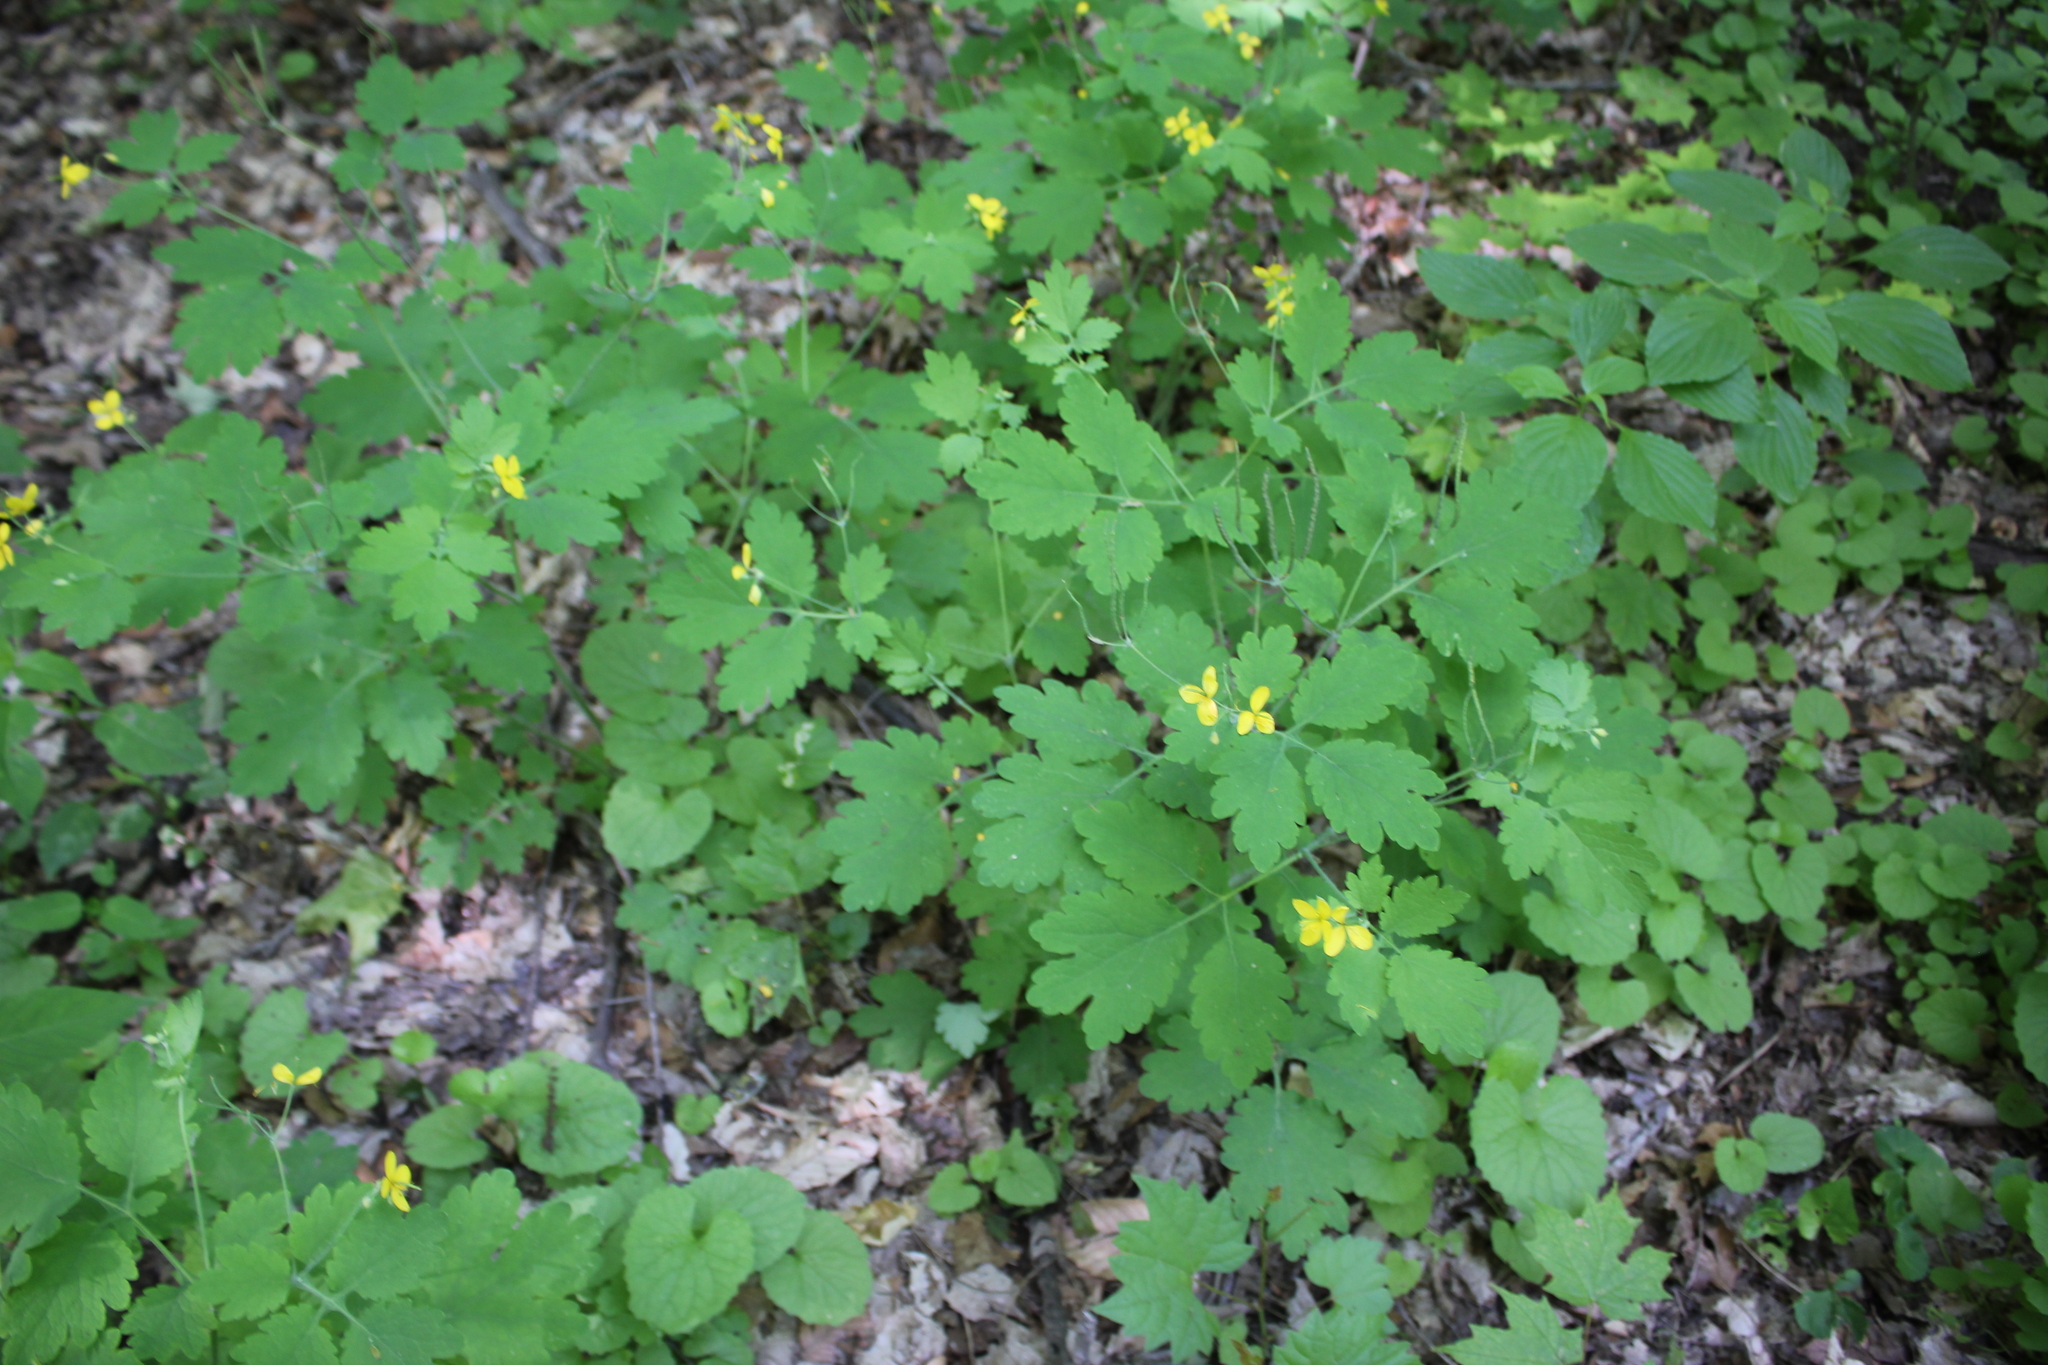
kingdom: Plantae
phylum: Tracheophyta
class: Magnoliopsida
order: Ranunculales
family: Papaveraceae
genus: Chelidonium
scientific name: Chelidonium majus
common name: Greater celandine
